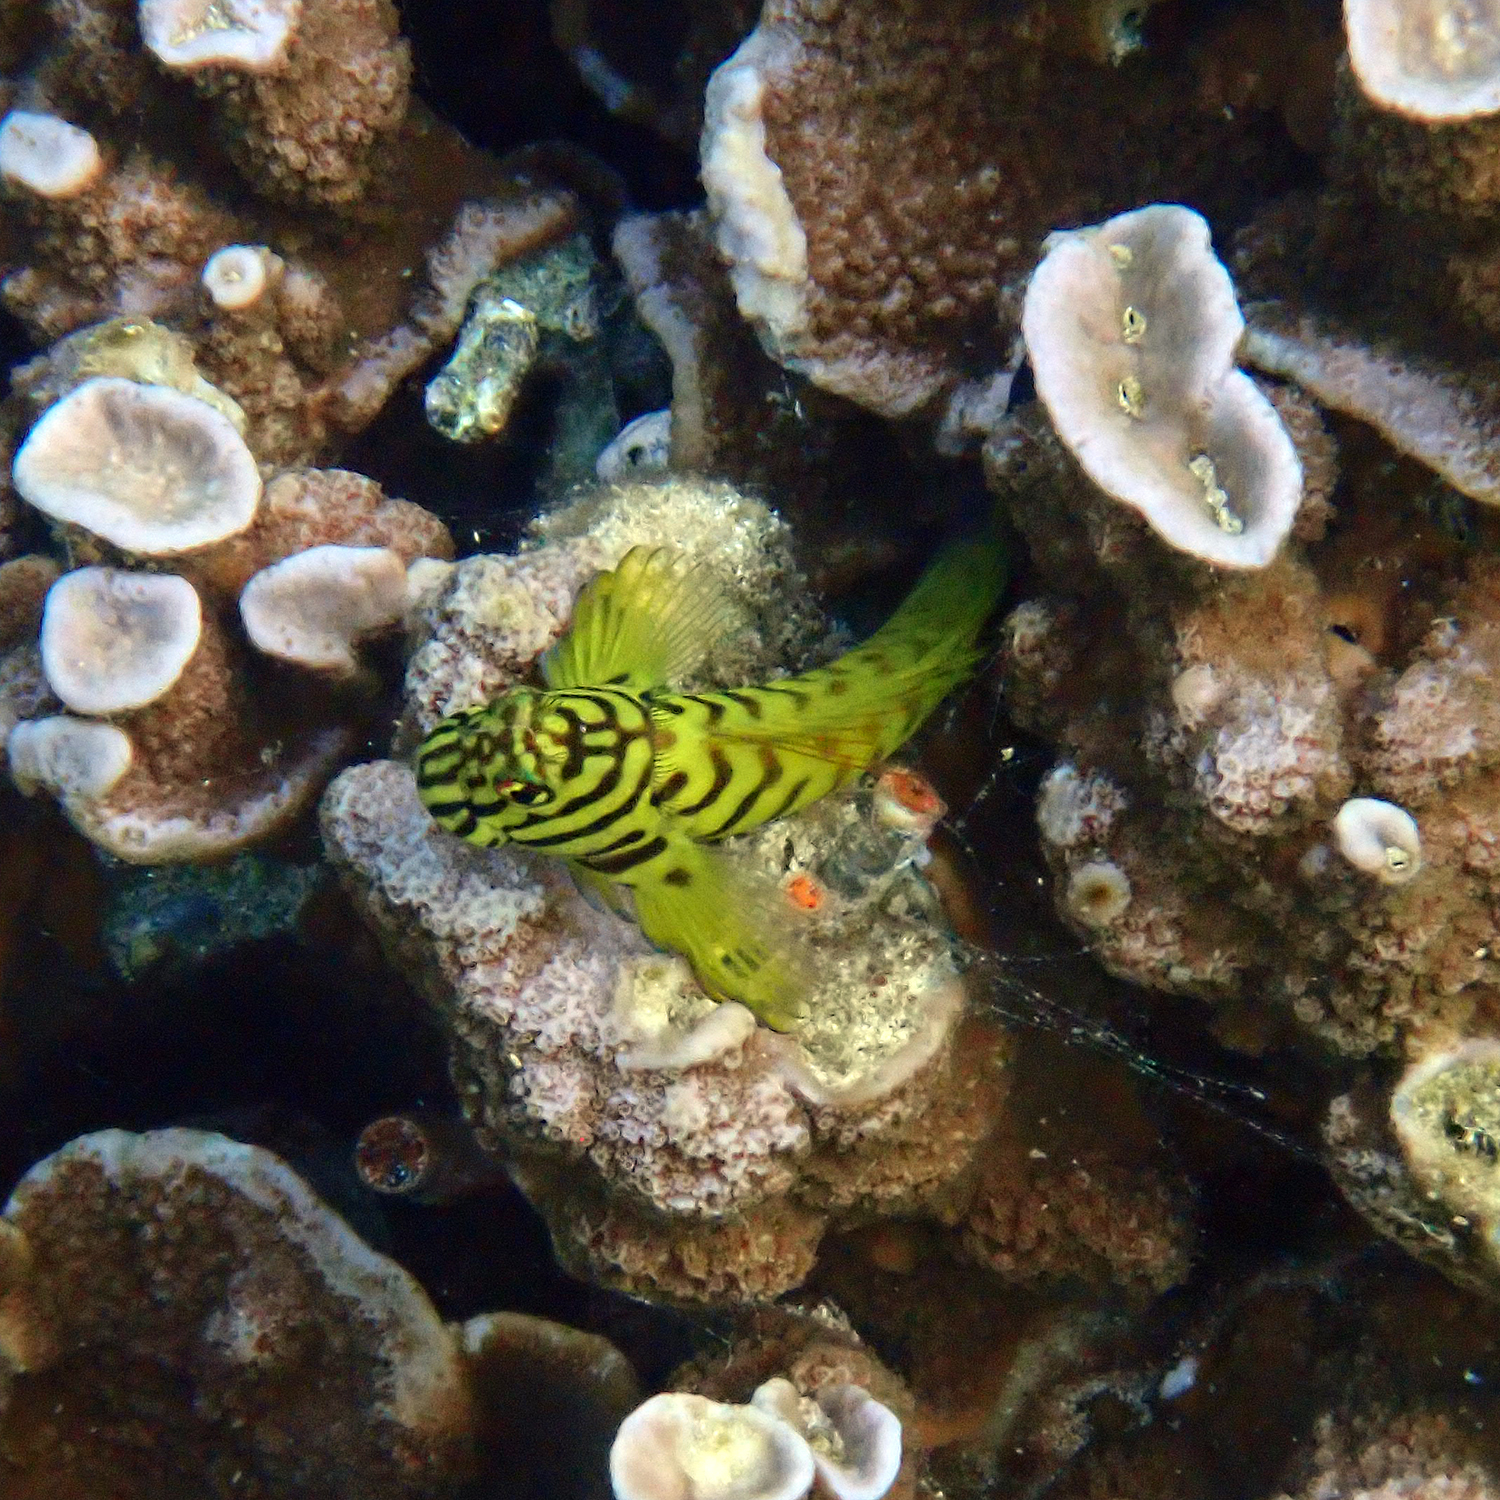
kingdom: Animalia
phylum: Chordata
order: Perciformes
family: Blenniidae
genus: Cirripectes
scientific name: Cirripectes castaneus
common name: Chestnut blenny
